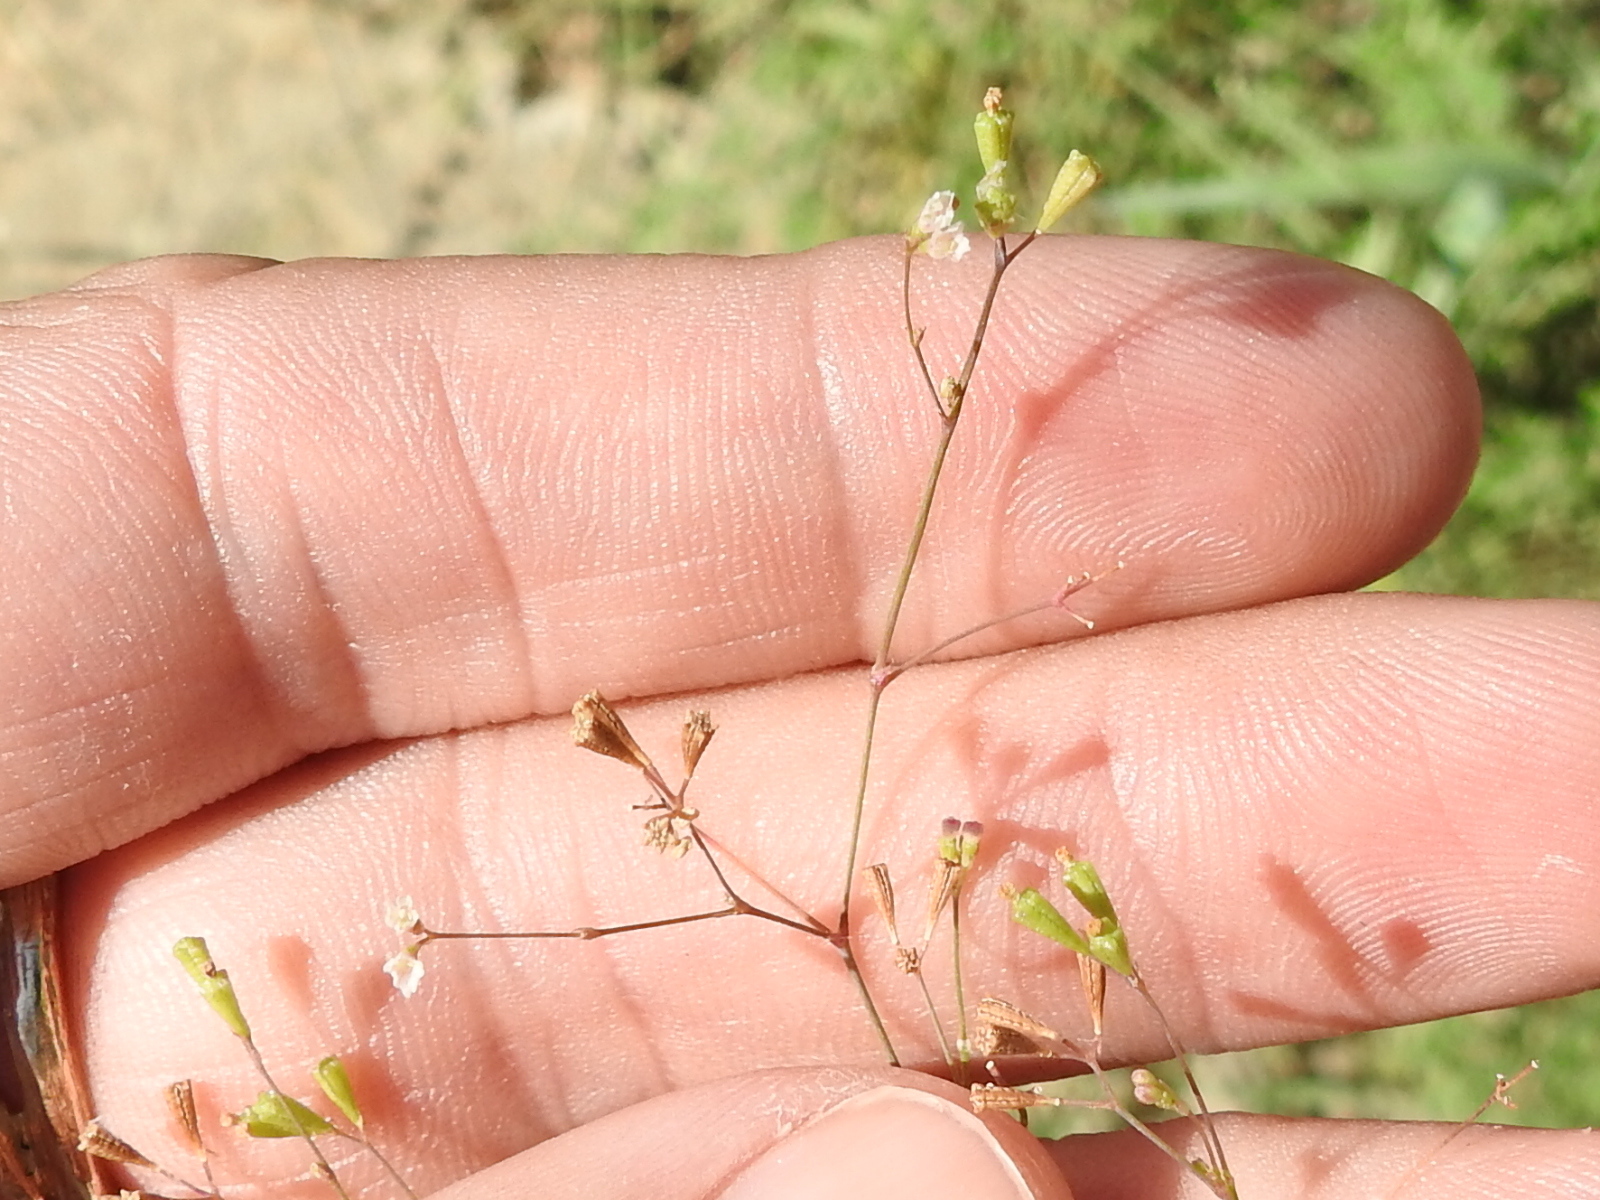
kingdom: Plantae
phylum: Tracheophyta
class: Magnoliopsida
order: Caryophyllales
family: Nyctaginaceae
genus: Boerhavia
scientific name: Boerhavia erecta
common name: Erect spiderling
